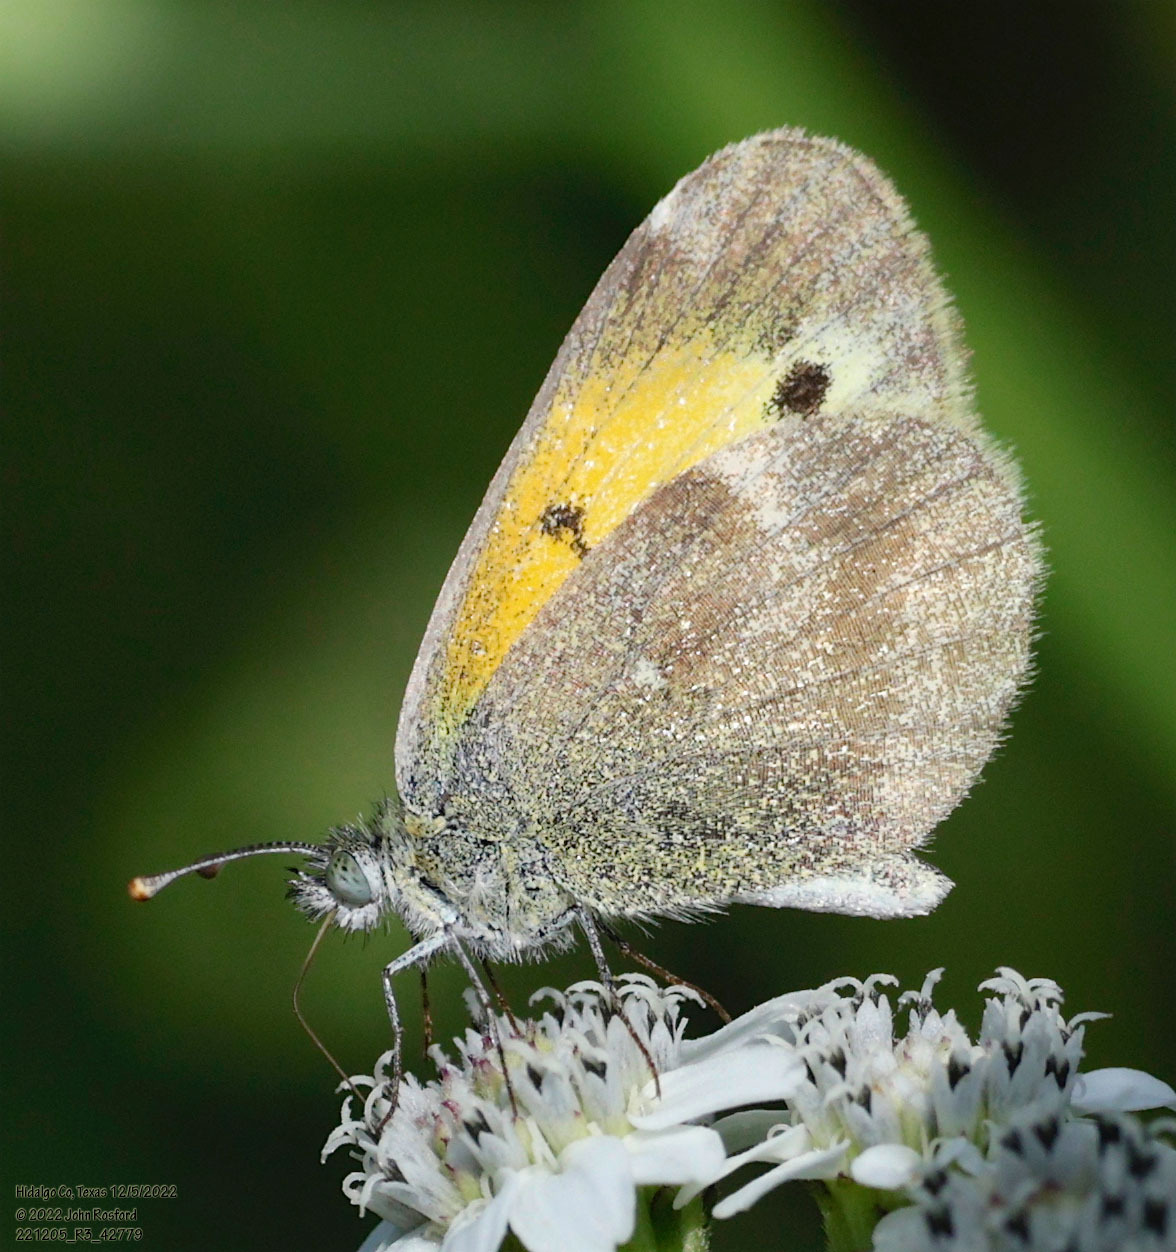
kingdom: Animalia
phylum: Arthropoda
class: Insecta
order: Lepidoptera
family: Pieridae
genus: Nathalis
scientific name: Nathalis iole
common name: Dainty sulphur
